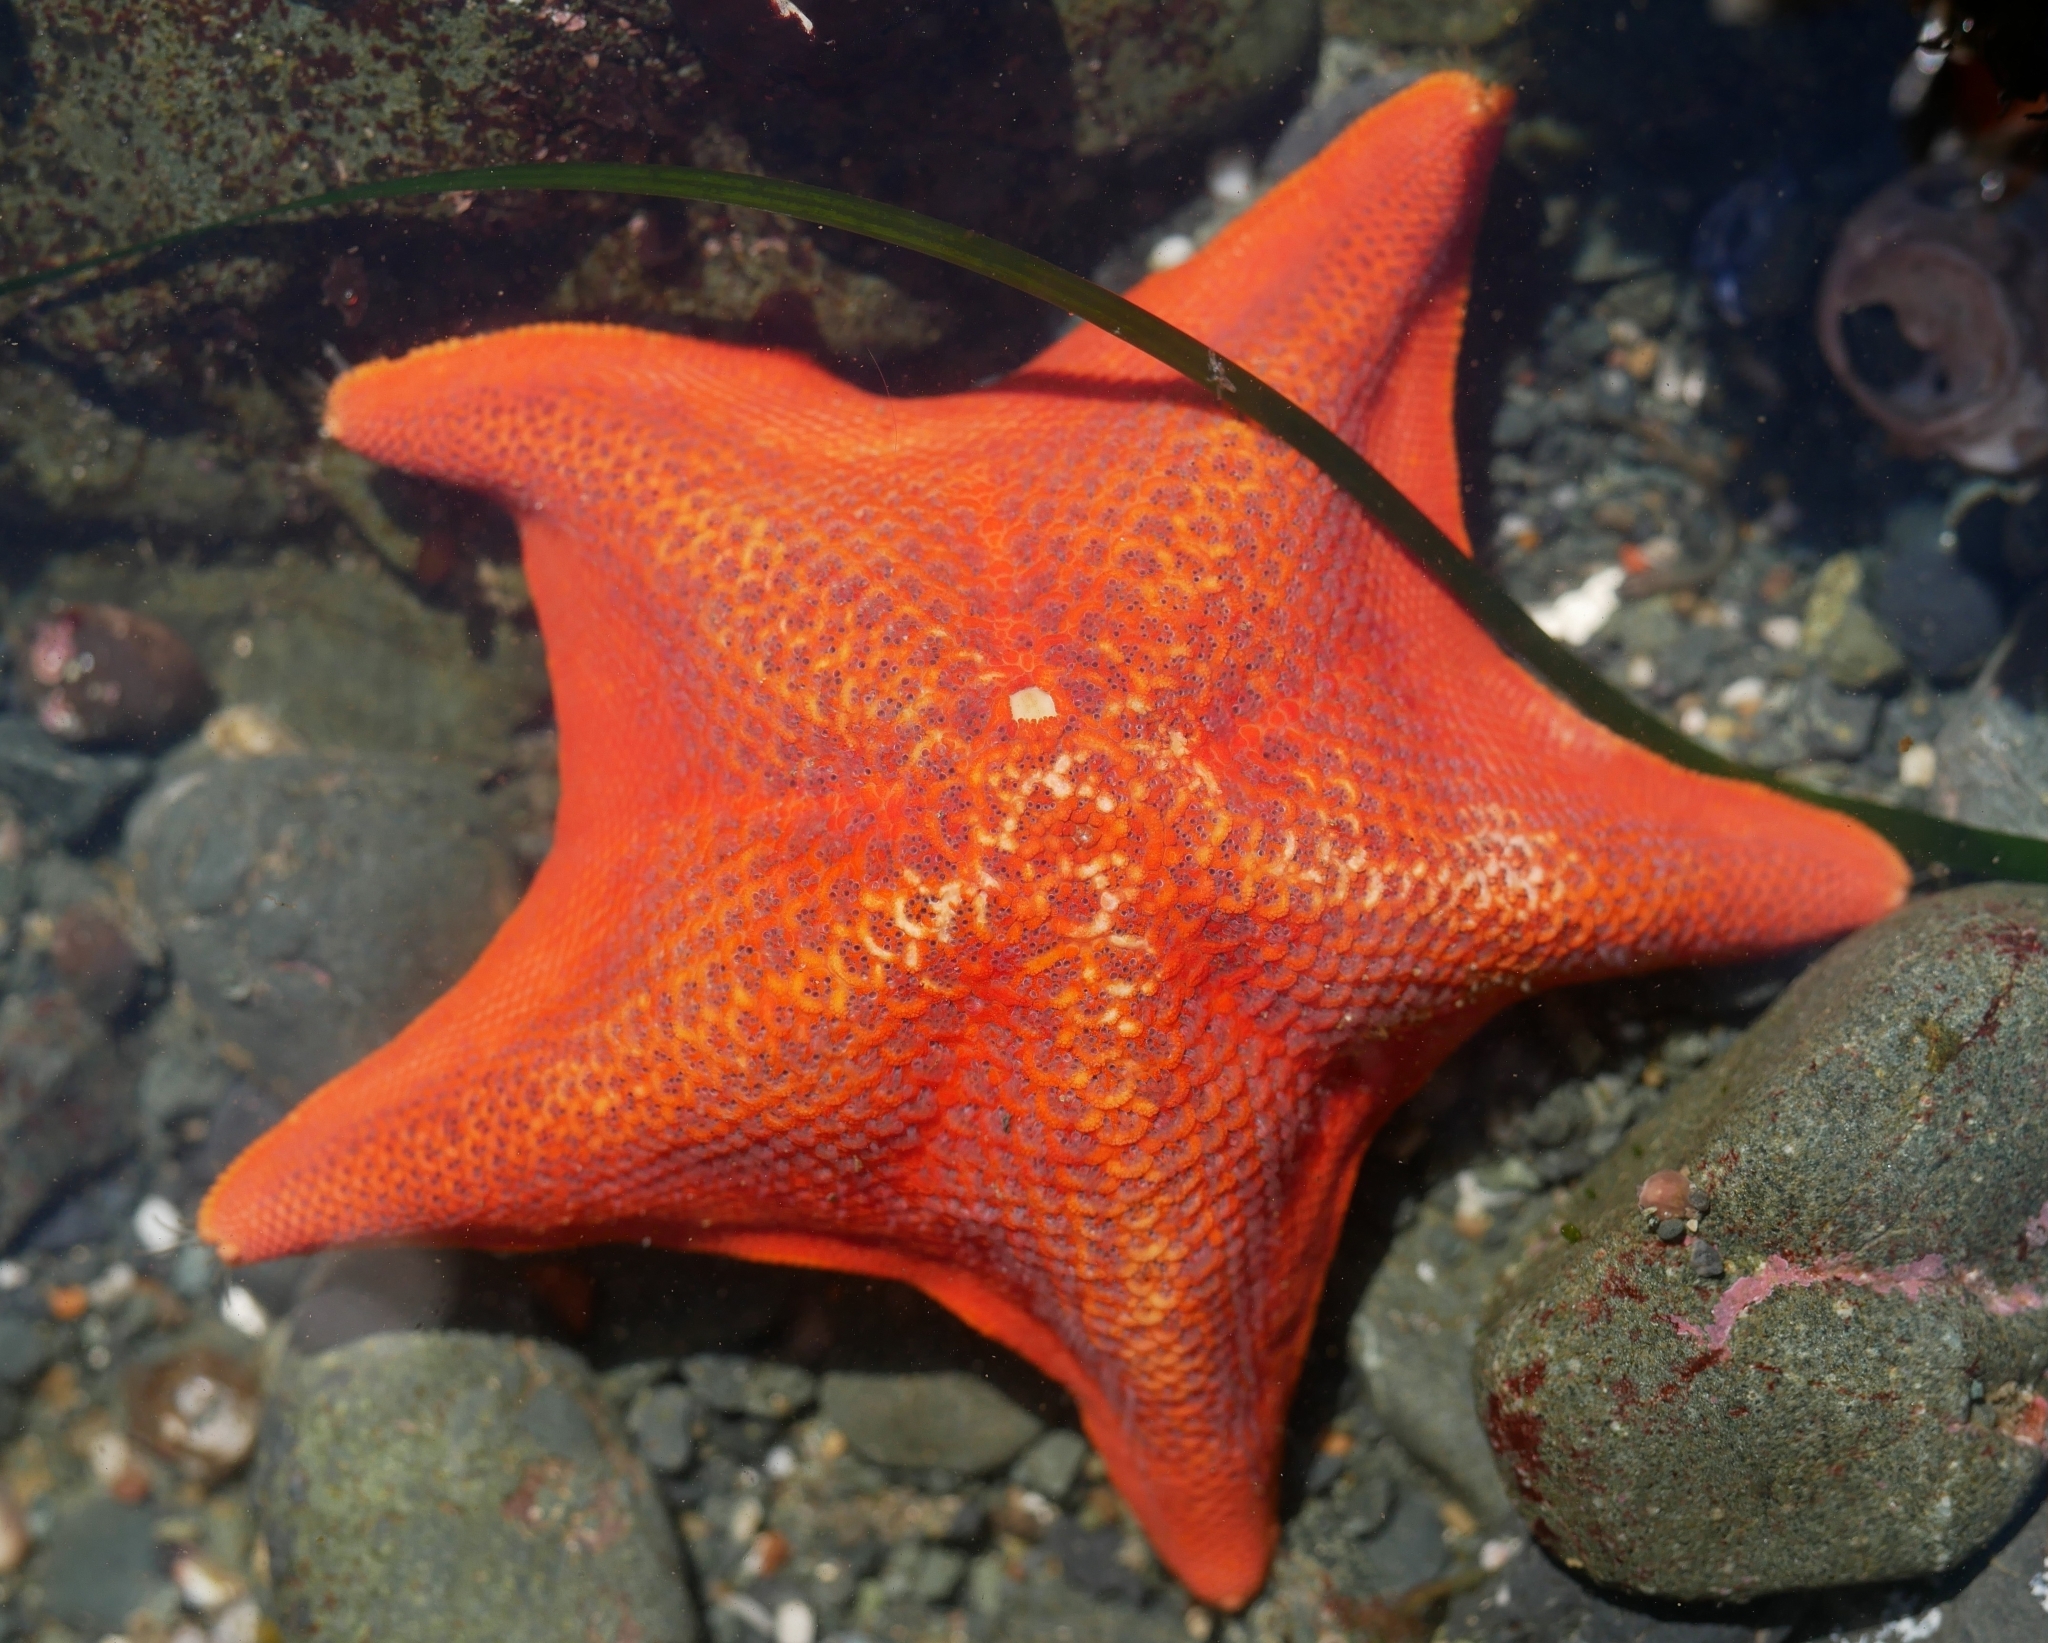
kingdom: Animalia
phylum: Echinodermata
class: Asteroidea
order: Valvatida
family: Asterinidae
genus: Patiria
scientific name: Patiria miniata
